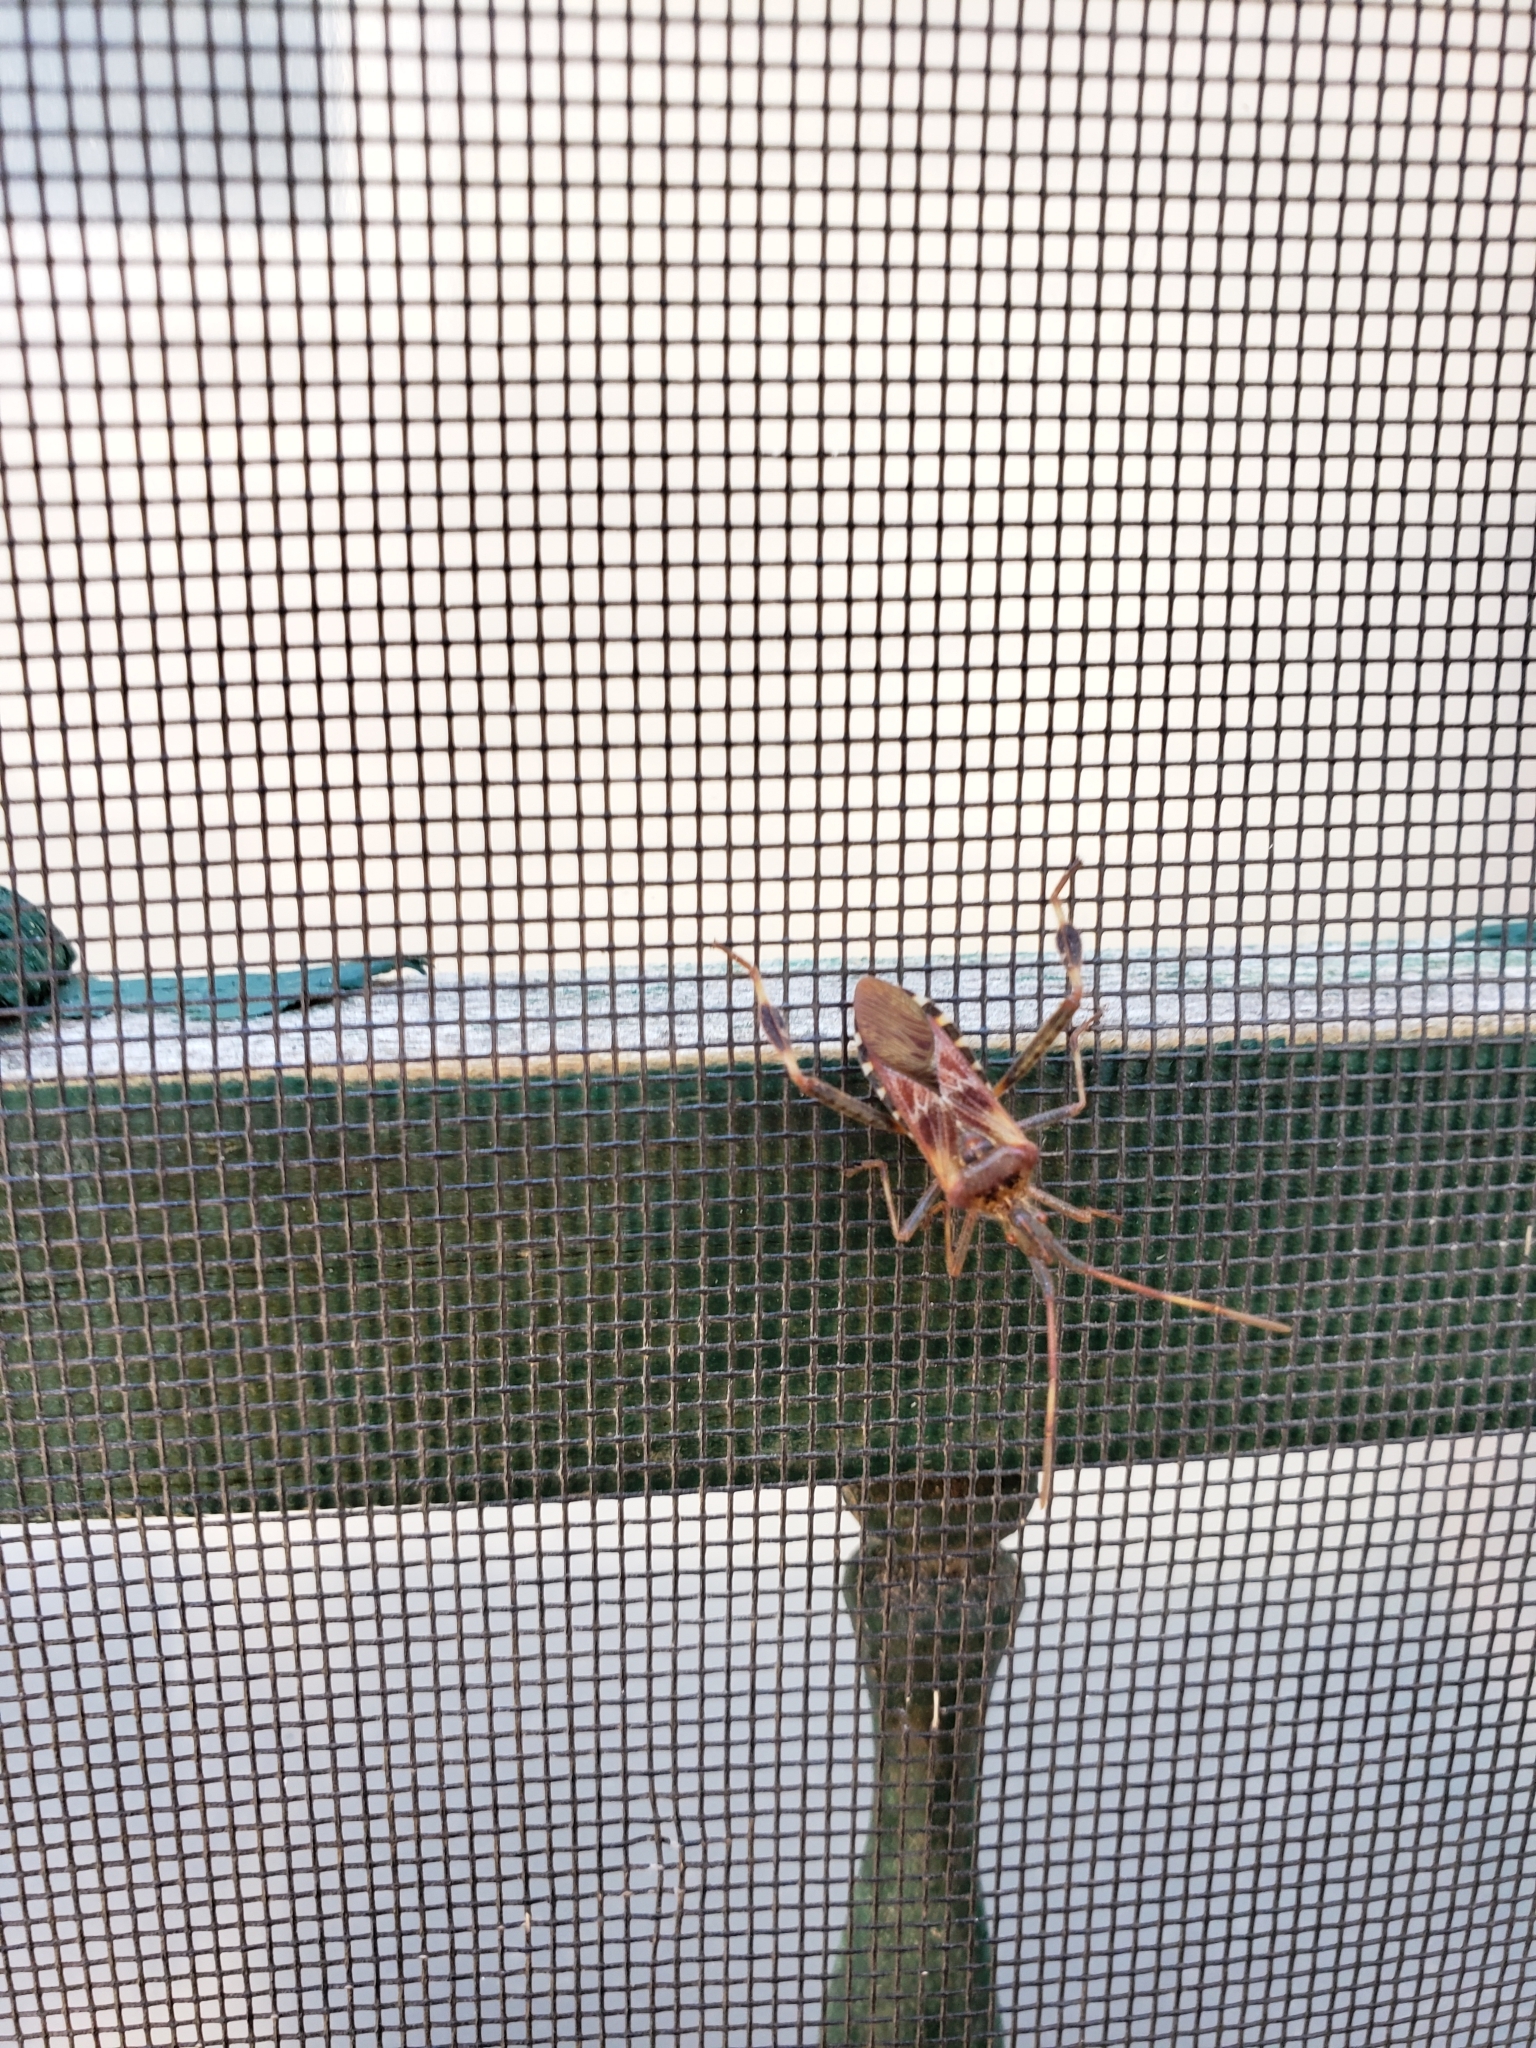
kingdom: Animalia
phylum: Arthropoda
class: Insecta
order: Hemiptera
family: Coreidae
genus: Leptoglossus
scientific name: Leptoglossus occidentalis
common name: Western conifer-seed bug
